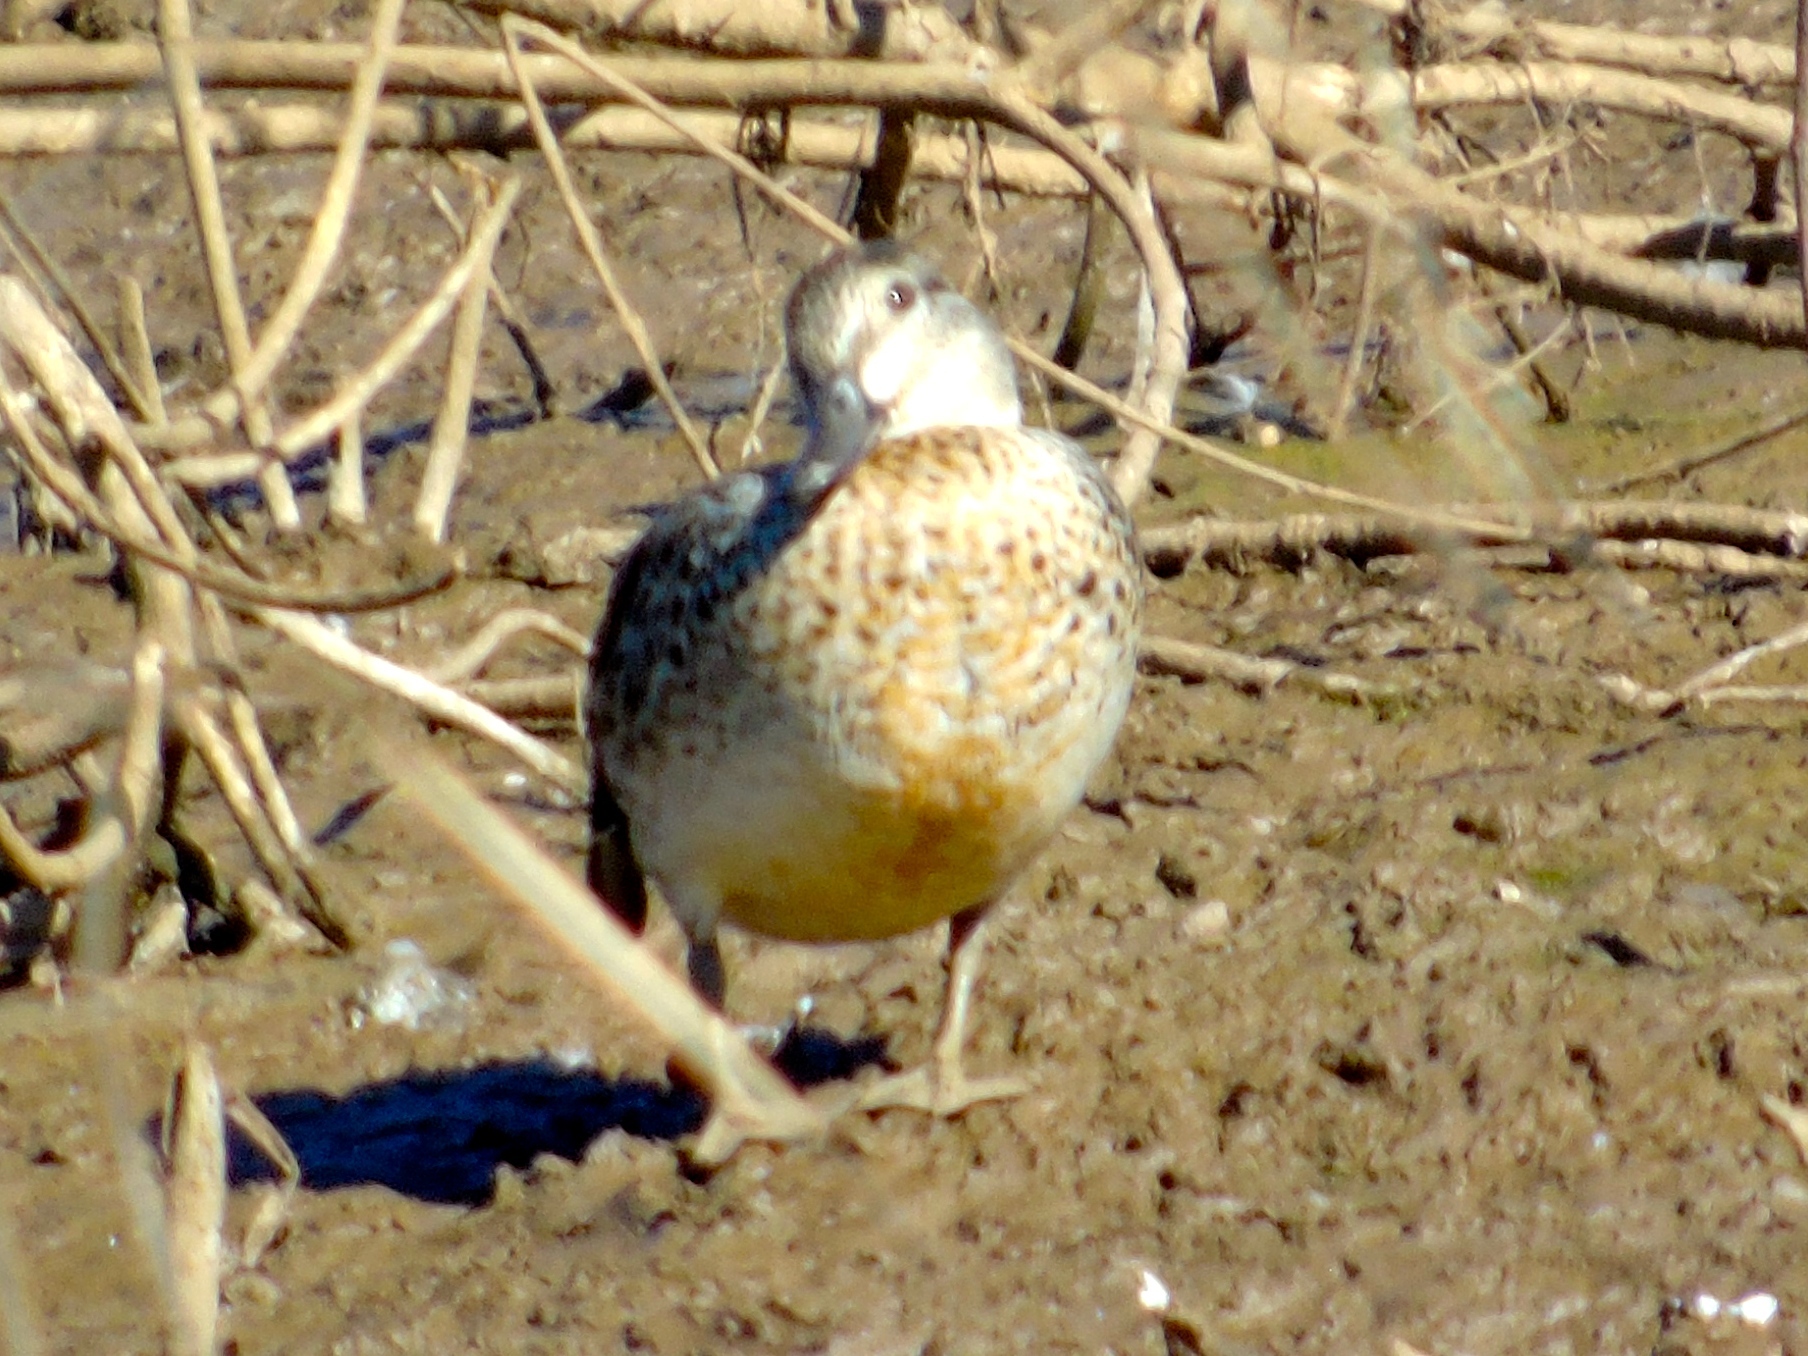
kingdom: Animalia
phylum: Chordata
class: Aves
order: Anseriformes
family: Anatidae
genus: Anas
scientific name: Anas crecca
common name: Eurasian teal
